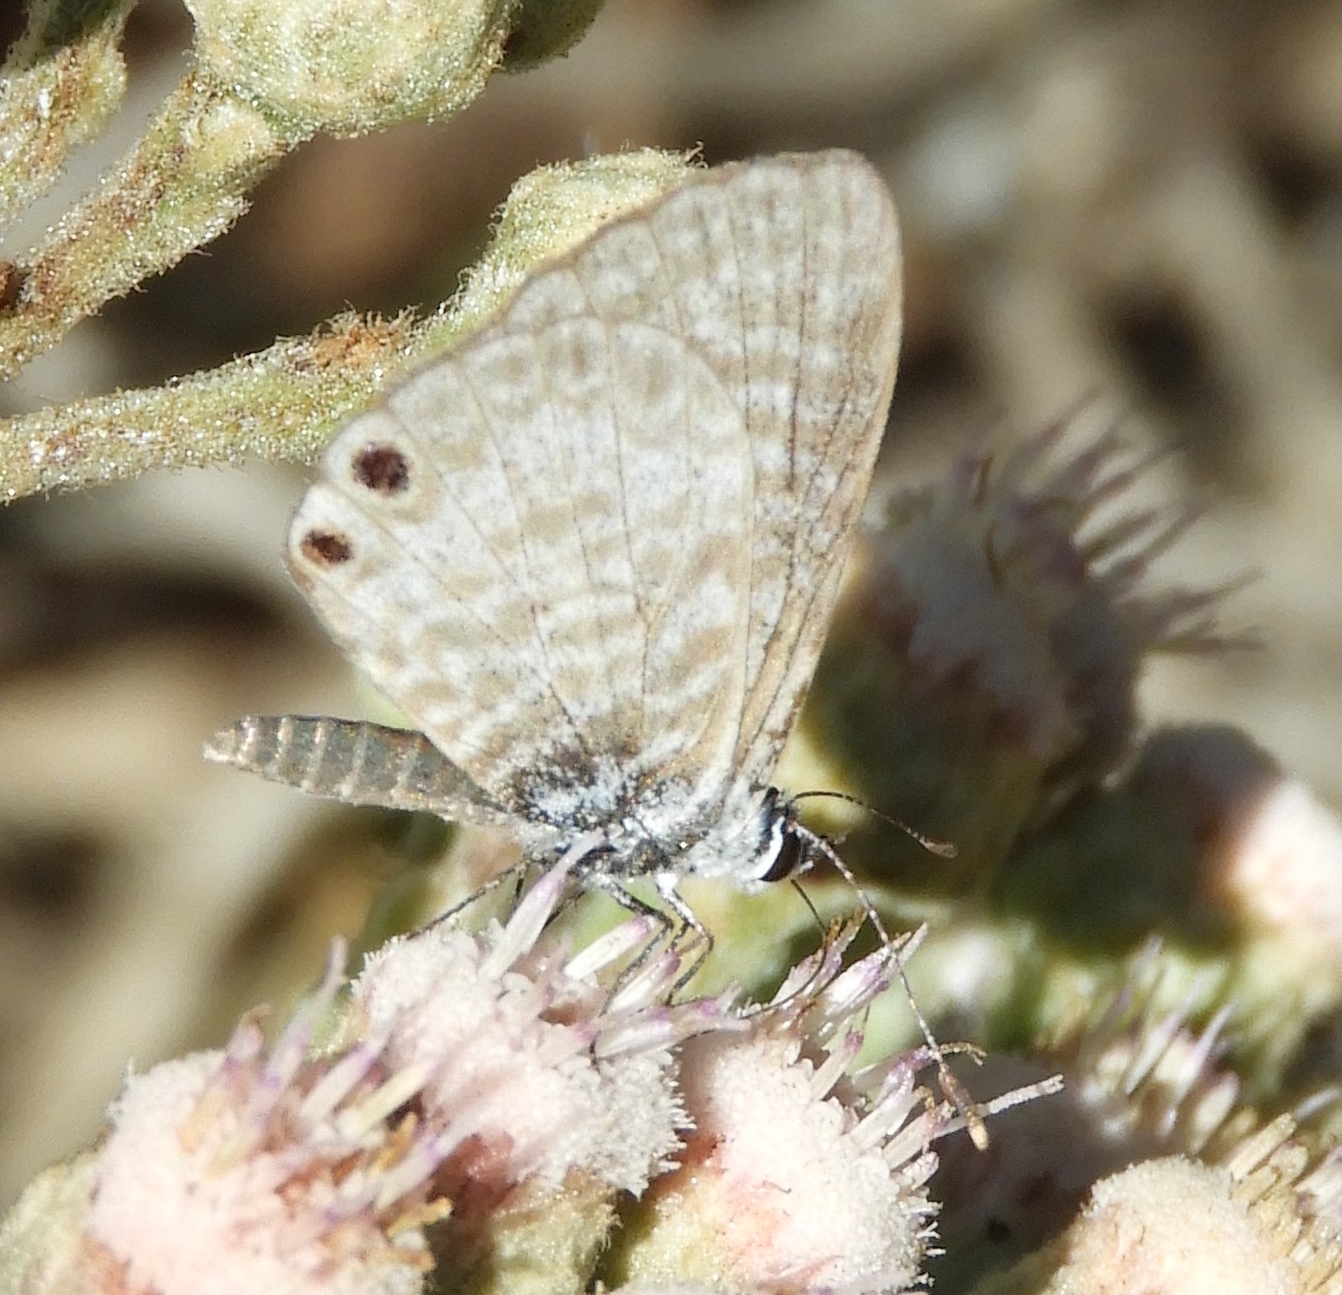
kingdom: Animalia
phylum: Arthropoda
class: Insecta
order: Lepidoptera
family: Lycaenidae
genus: Leptotes
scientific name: Leptotes marina
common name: Marine blue
